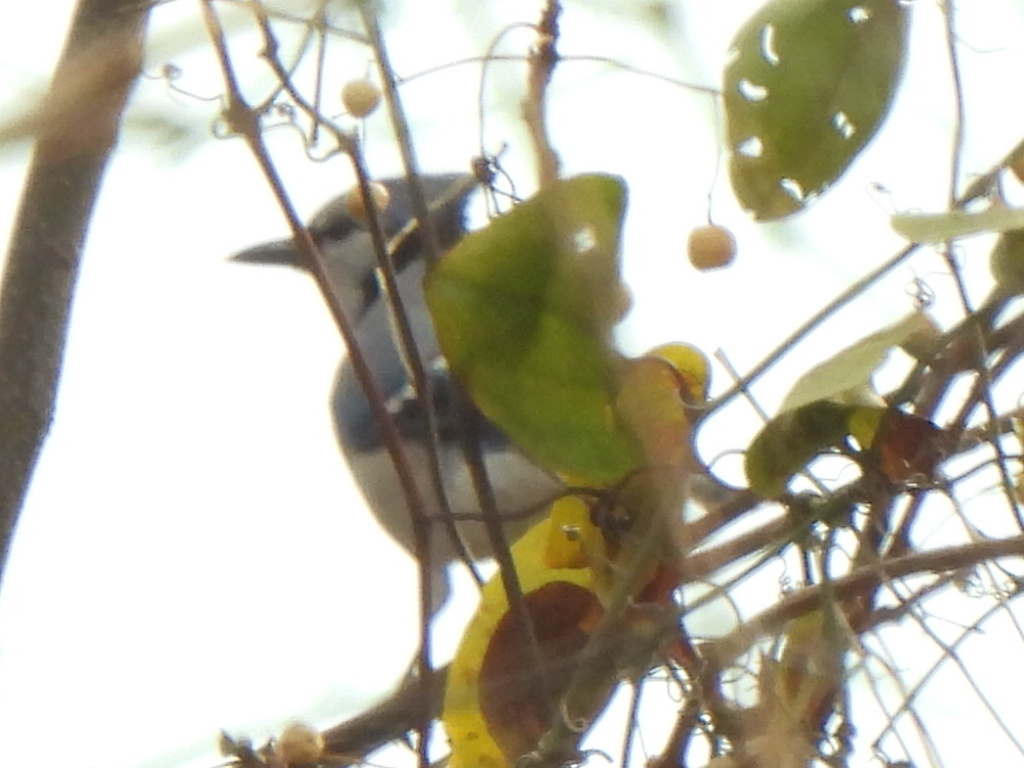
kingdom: Animalia
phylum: Chordata
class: Aves
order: Passeriformes
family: Corvidae
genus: Cyanocitta
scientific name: Cyanocitta cristata
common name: Blue jay
